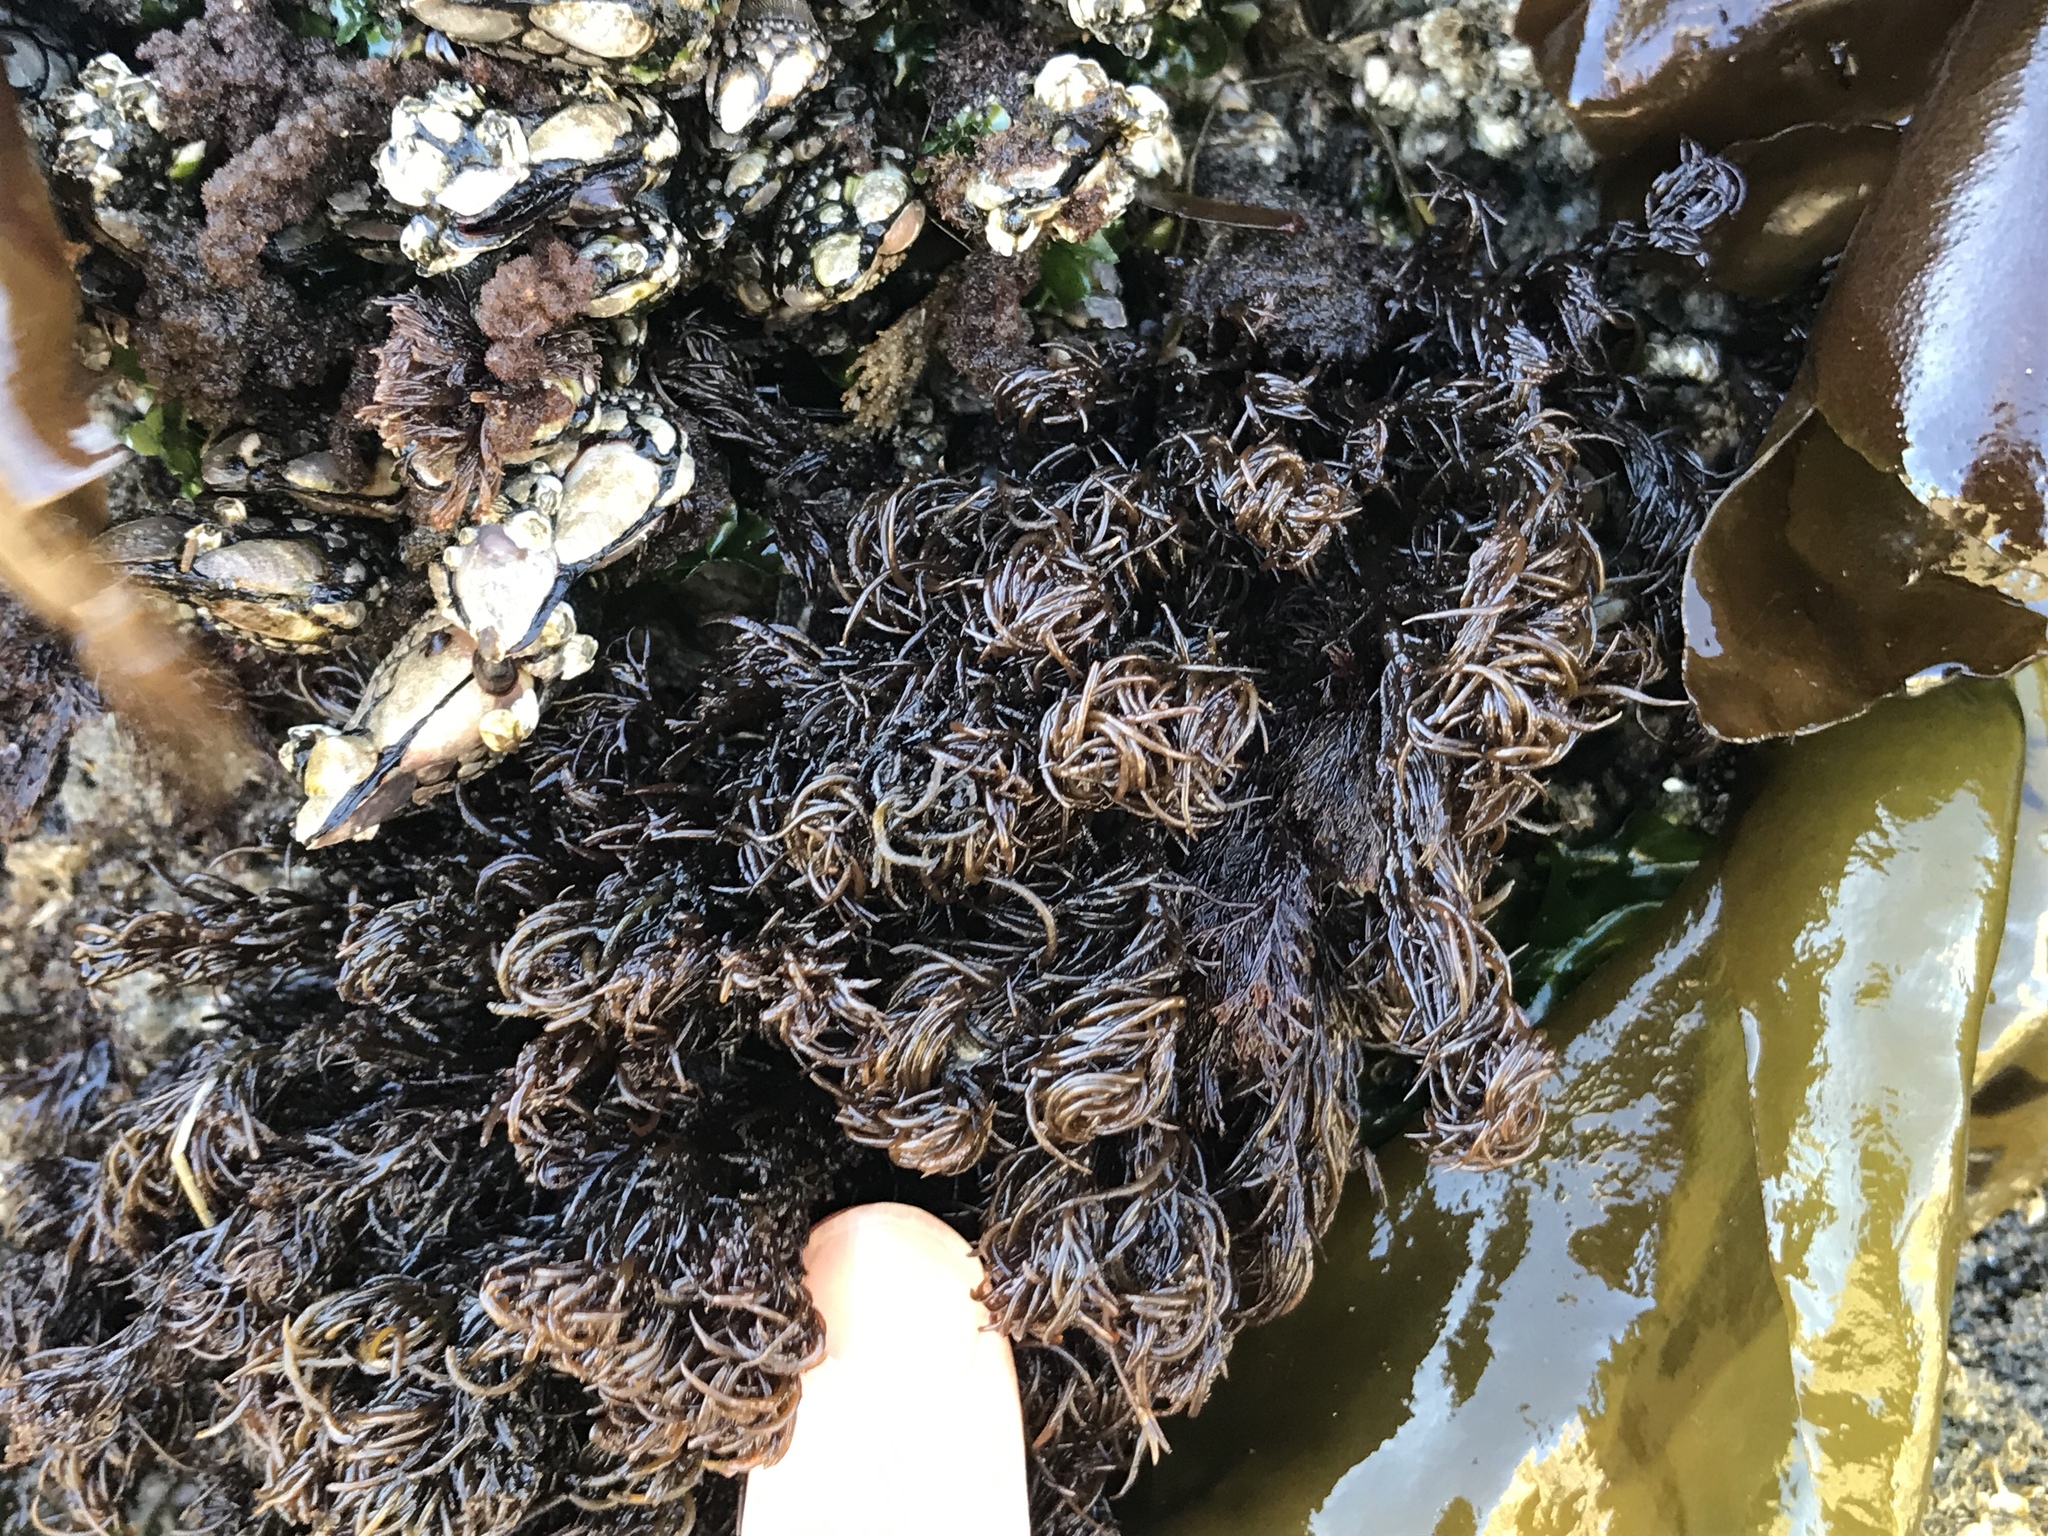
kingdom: Plantae
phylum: Rhodophyta
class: Florideophyceae
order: Ceramiales
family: Rhodomelaceae
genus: Odonthalia
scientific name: Odonthalia floccosa
